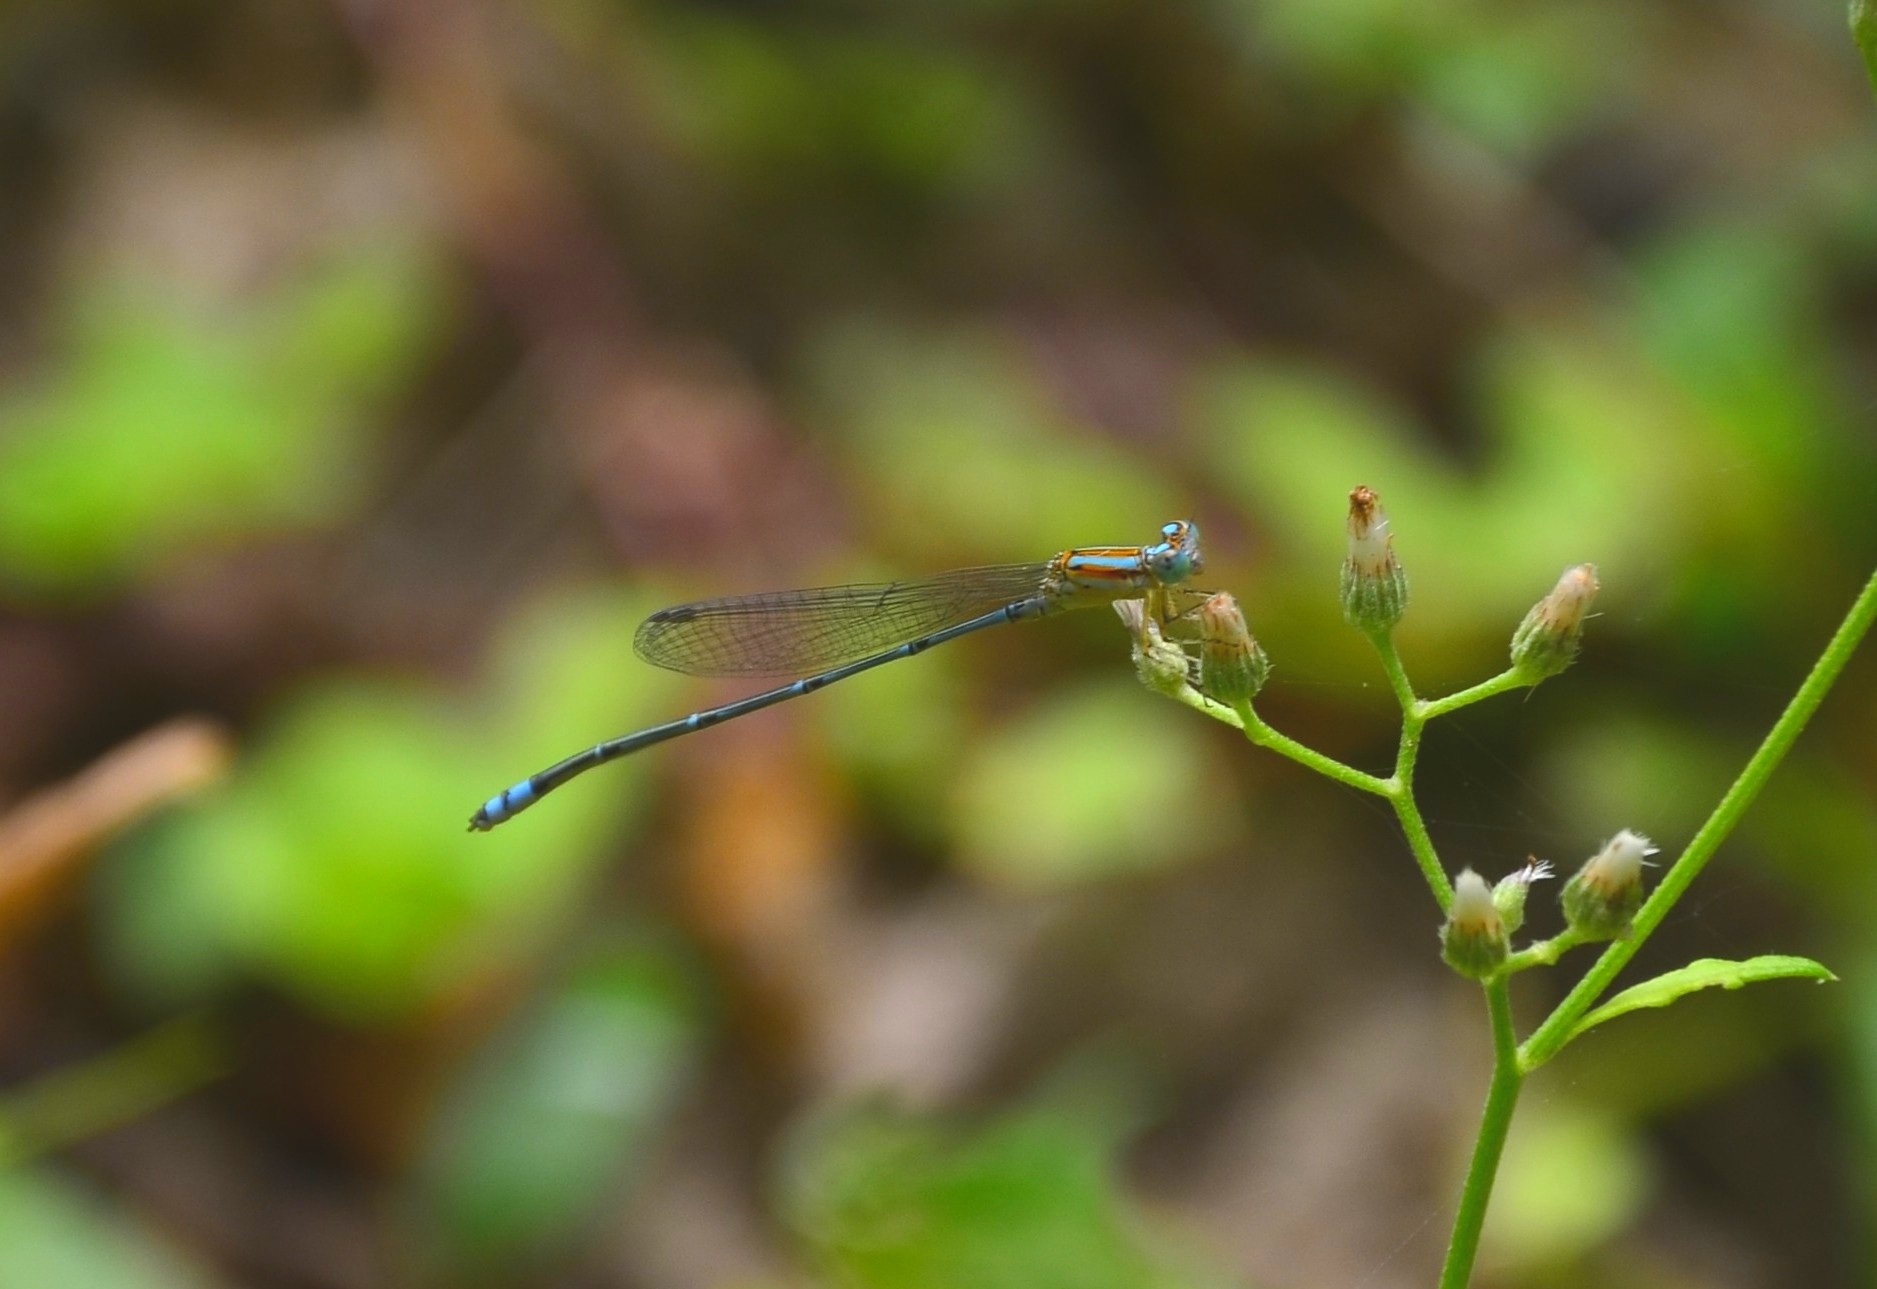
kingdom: Animalia
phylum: Arthropoda
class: Insecta
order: Odonata
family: Coenagrionidae
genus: Pseudagrion
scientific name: Pseudagrion microcephalum
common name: Blue riverdamsel
